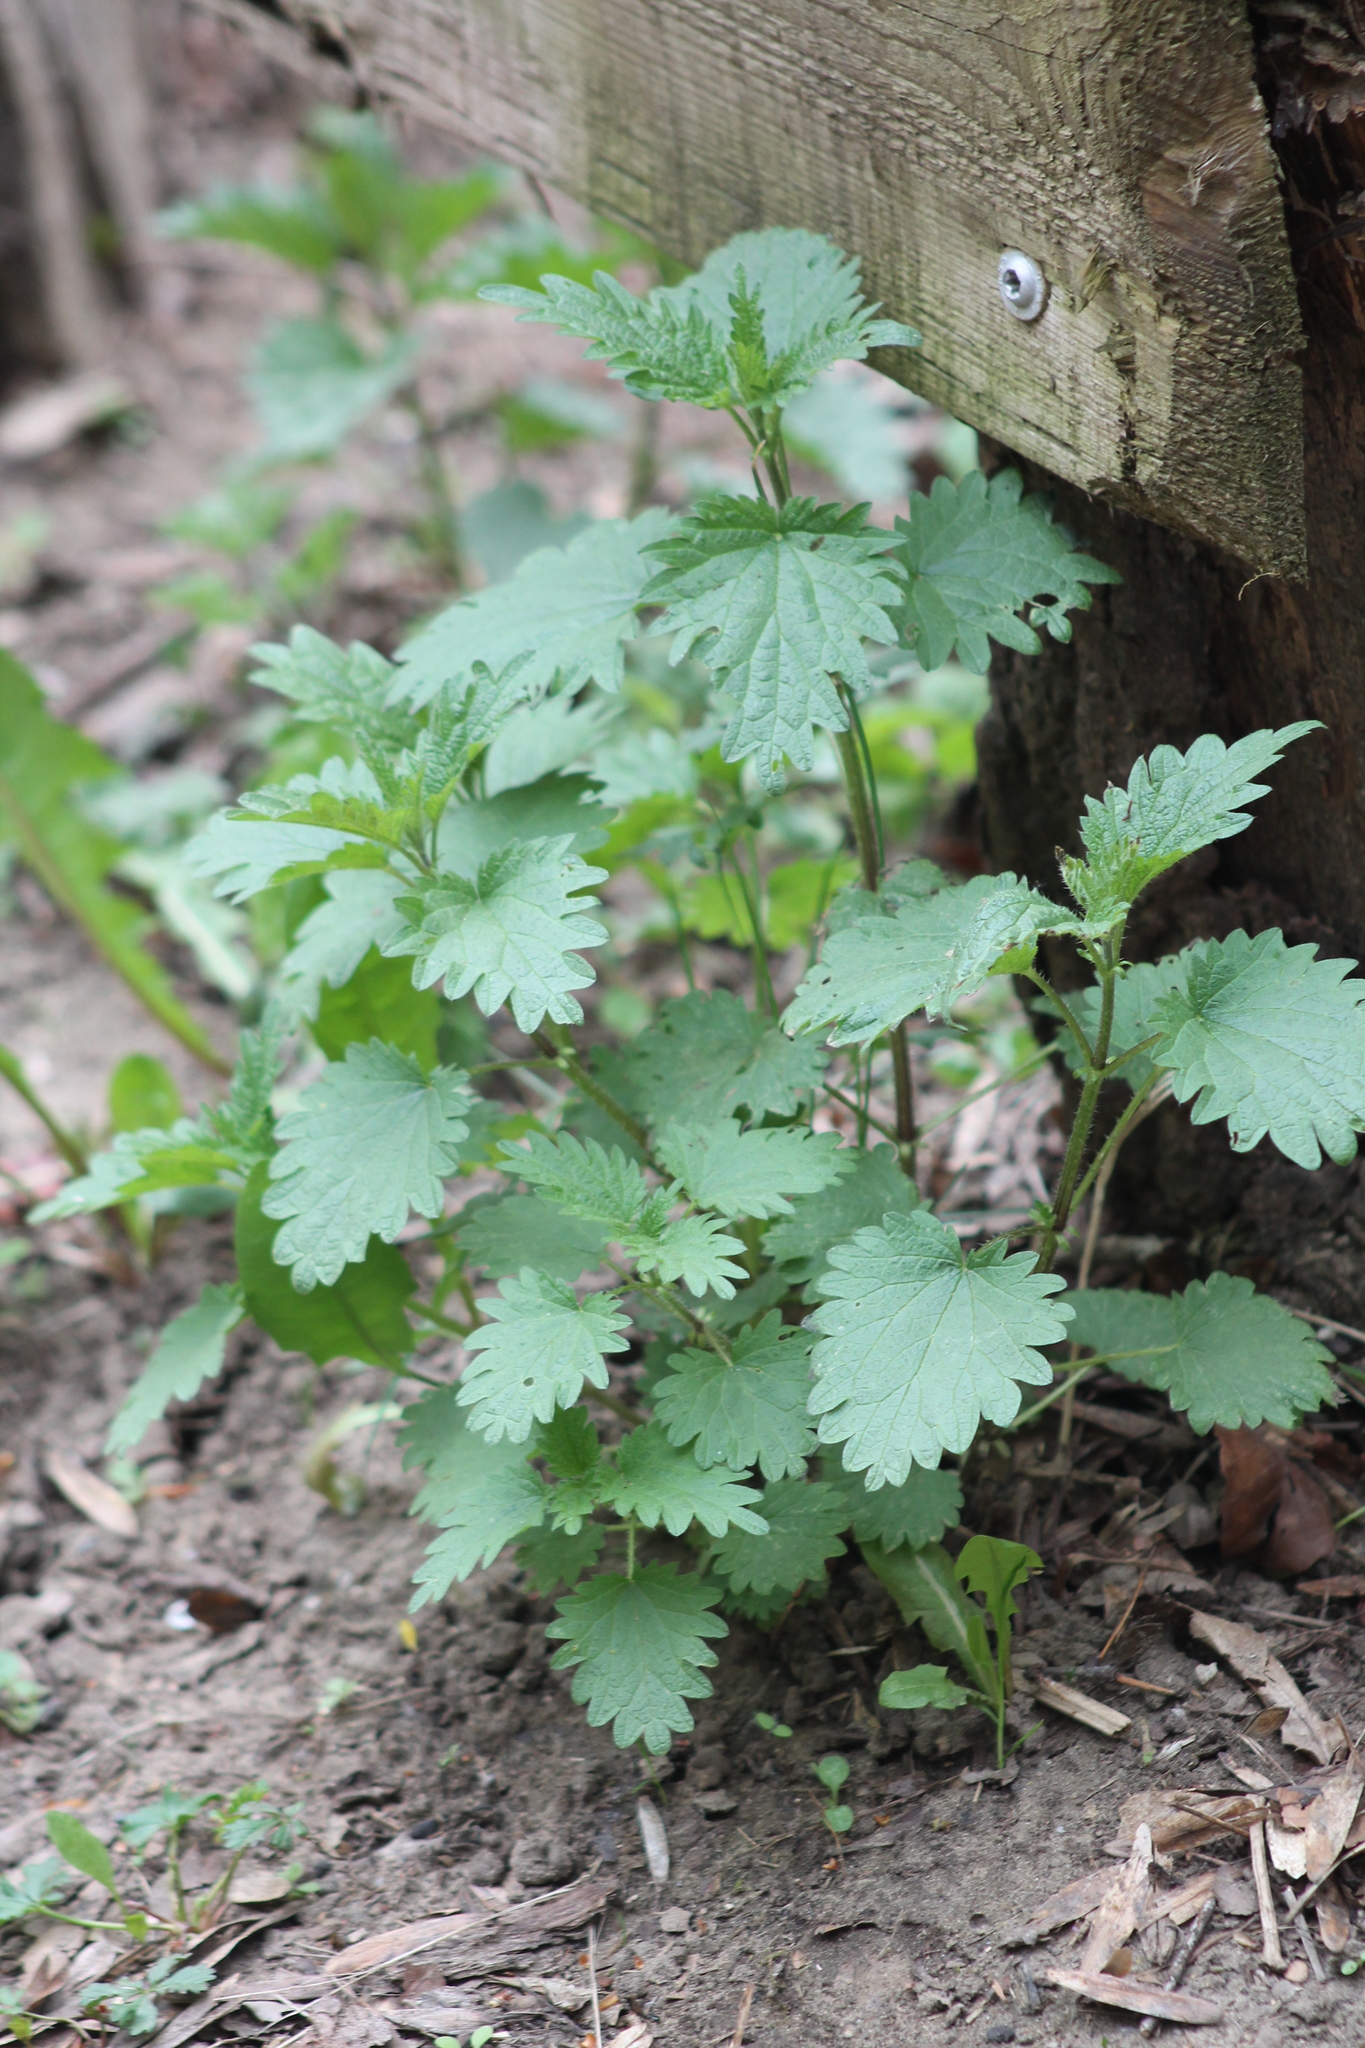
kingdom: Plantae
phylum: Tracheophyta
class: Magnoliopsida
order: Rosales
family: Urticaceae
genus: Urtica
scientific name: Urtica dioica
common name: Common nettle
